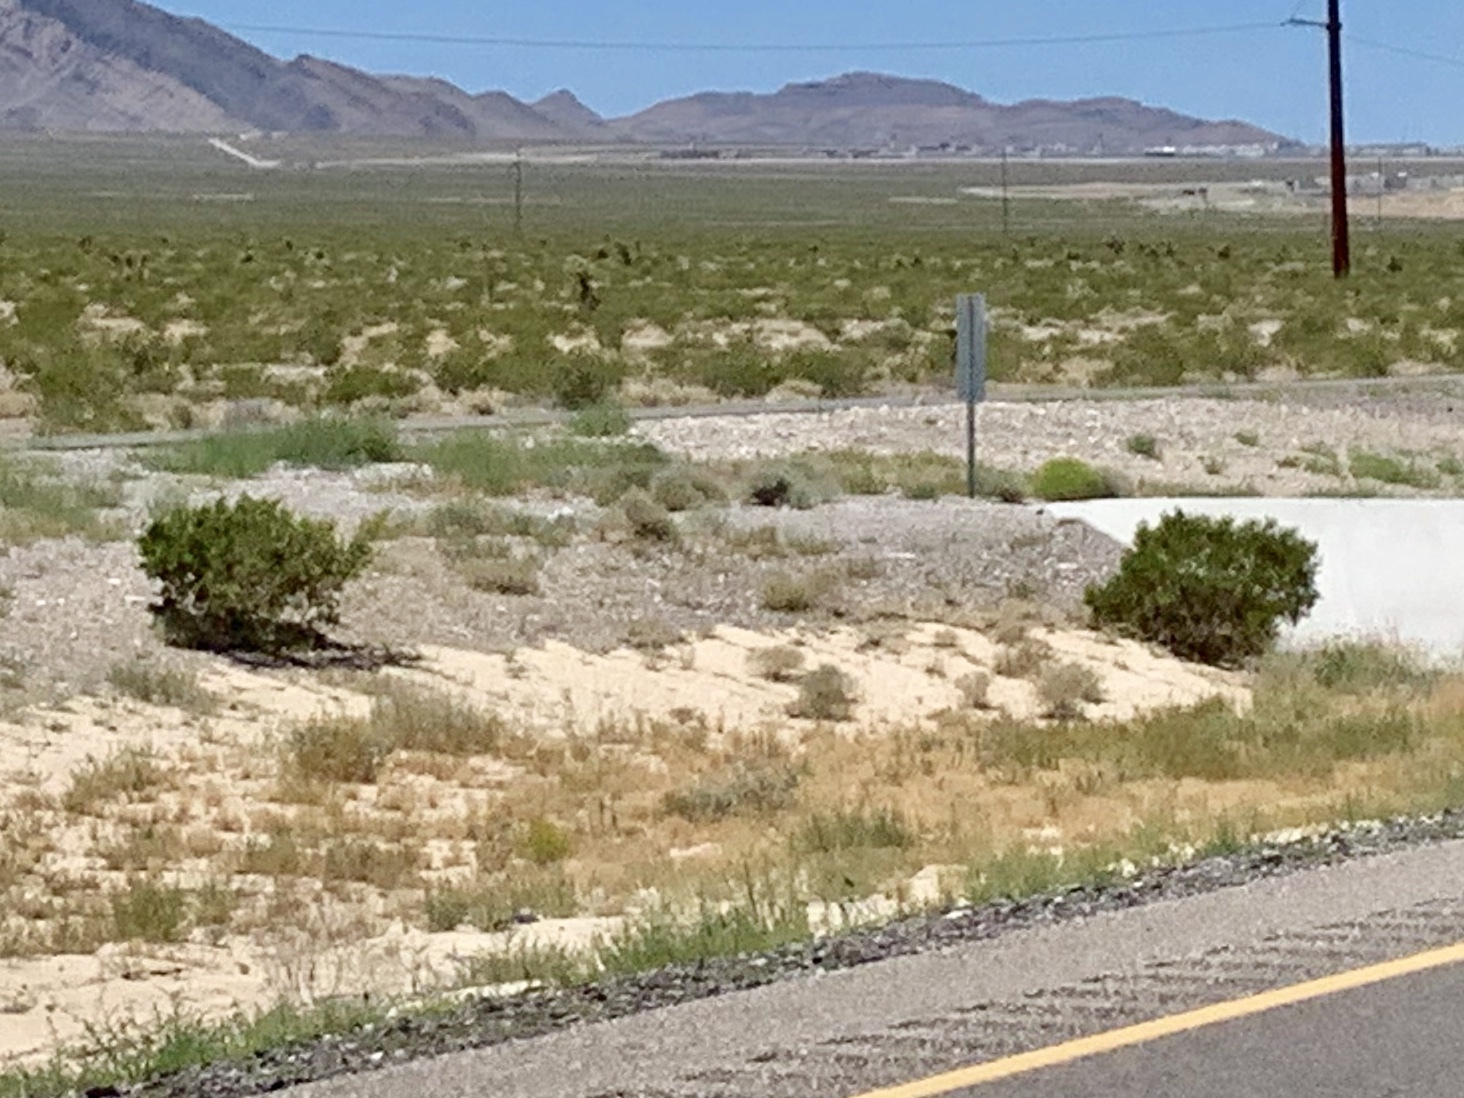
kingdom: Plantae
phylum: Tracheophyta
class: Magnoliopsida
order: Zygophyllales
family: Zygophyllaceae
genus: Larrea
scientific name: Larrea tridentata
